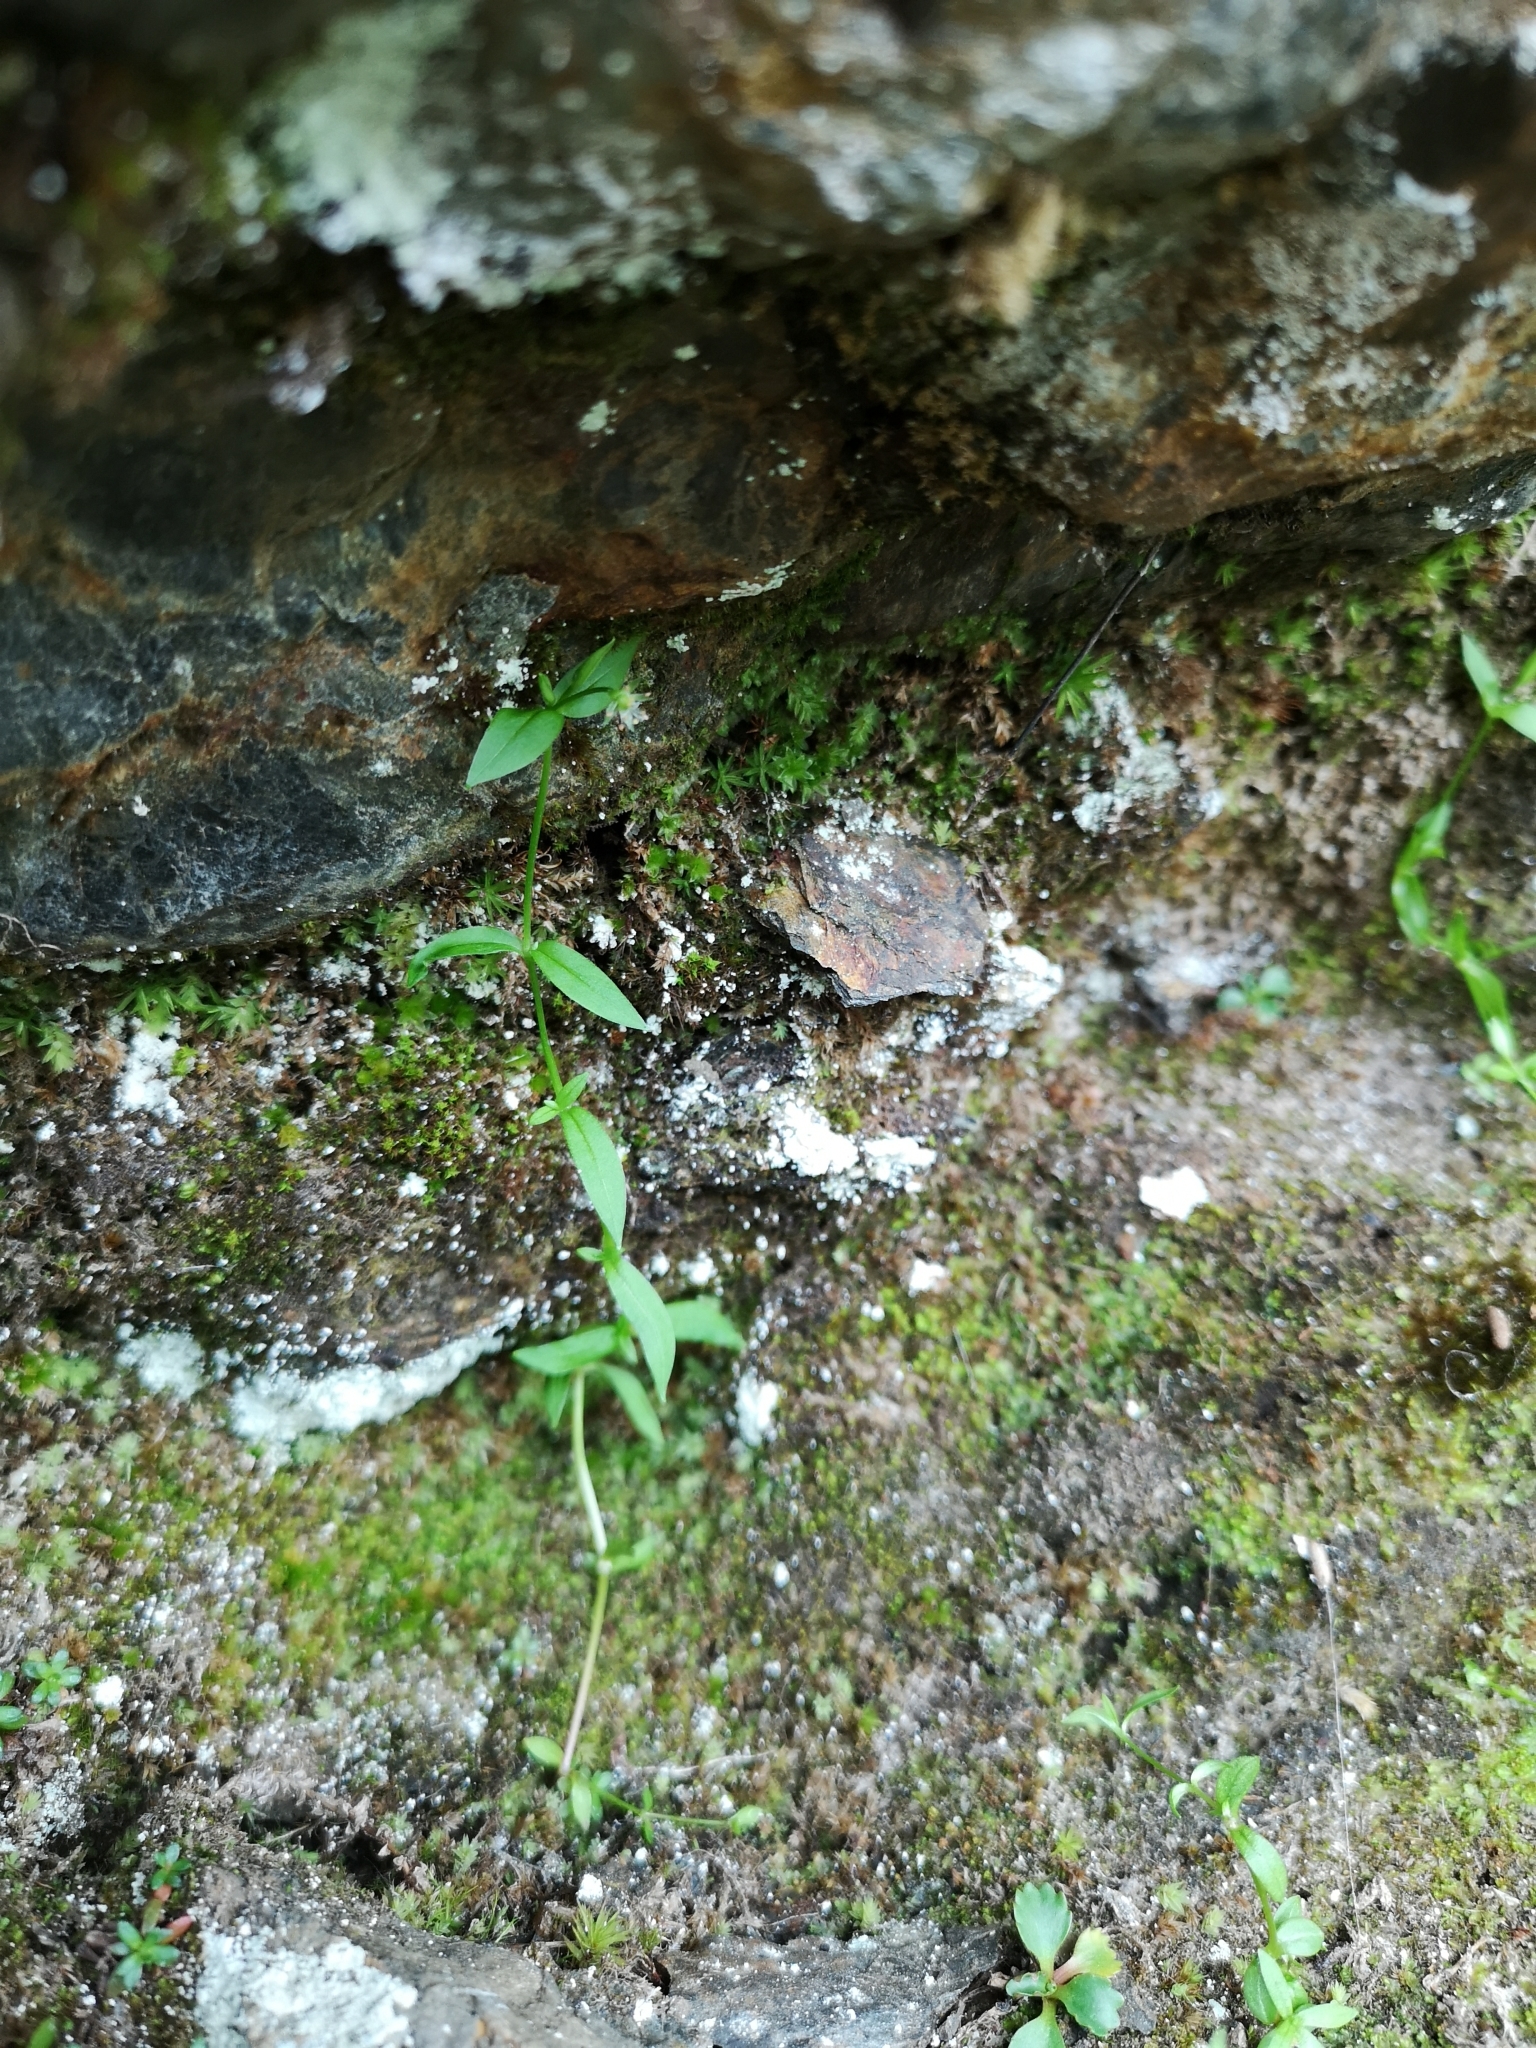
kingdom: Plantae
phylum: Tracheophyta
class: Magnoliopsida
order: Caryophyllales
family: Caryophyllaceae
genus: Stellaria
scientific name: Stellaria borealis
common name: Boreal starwort
